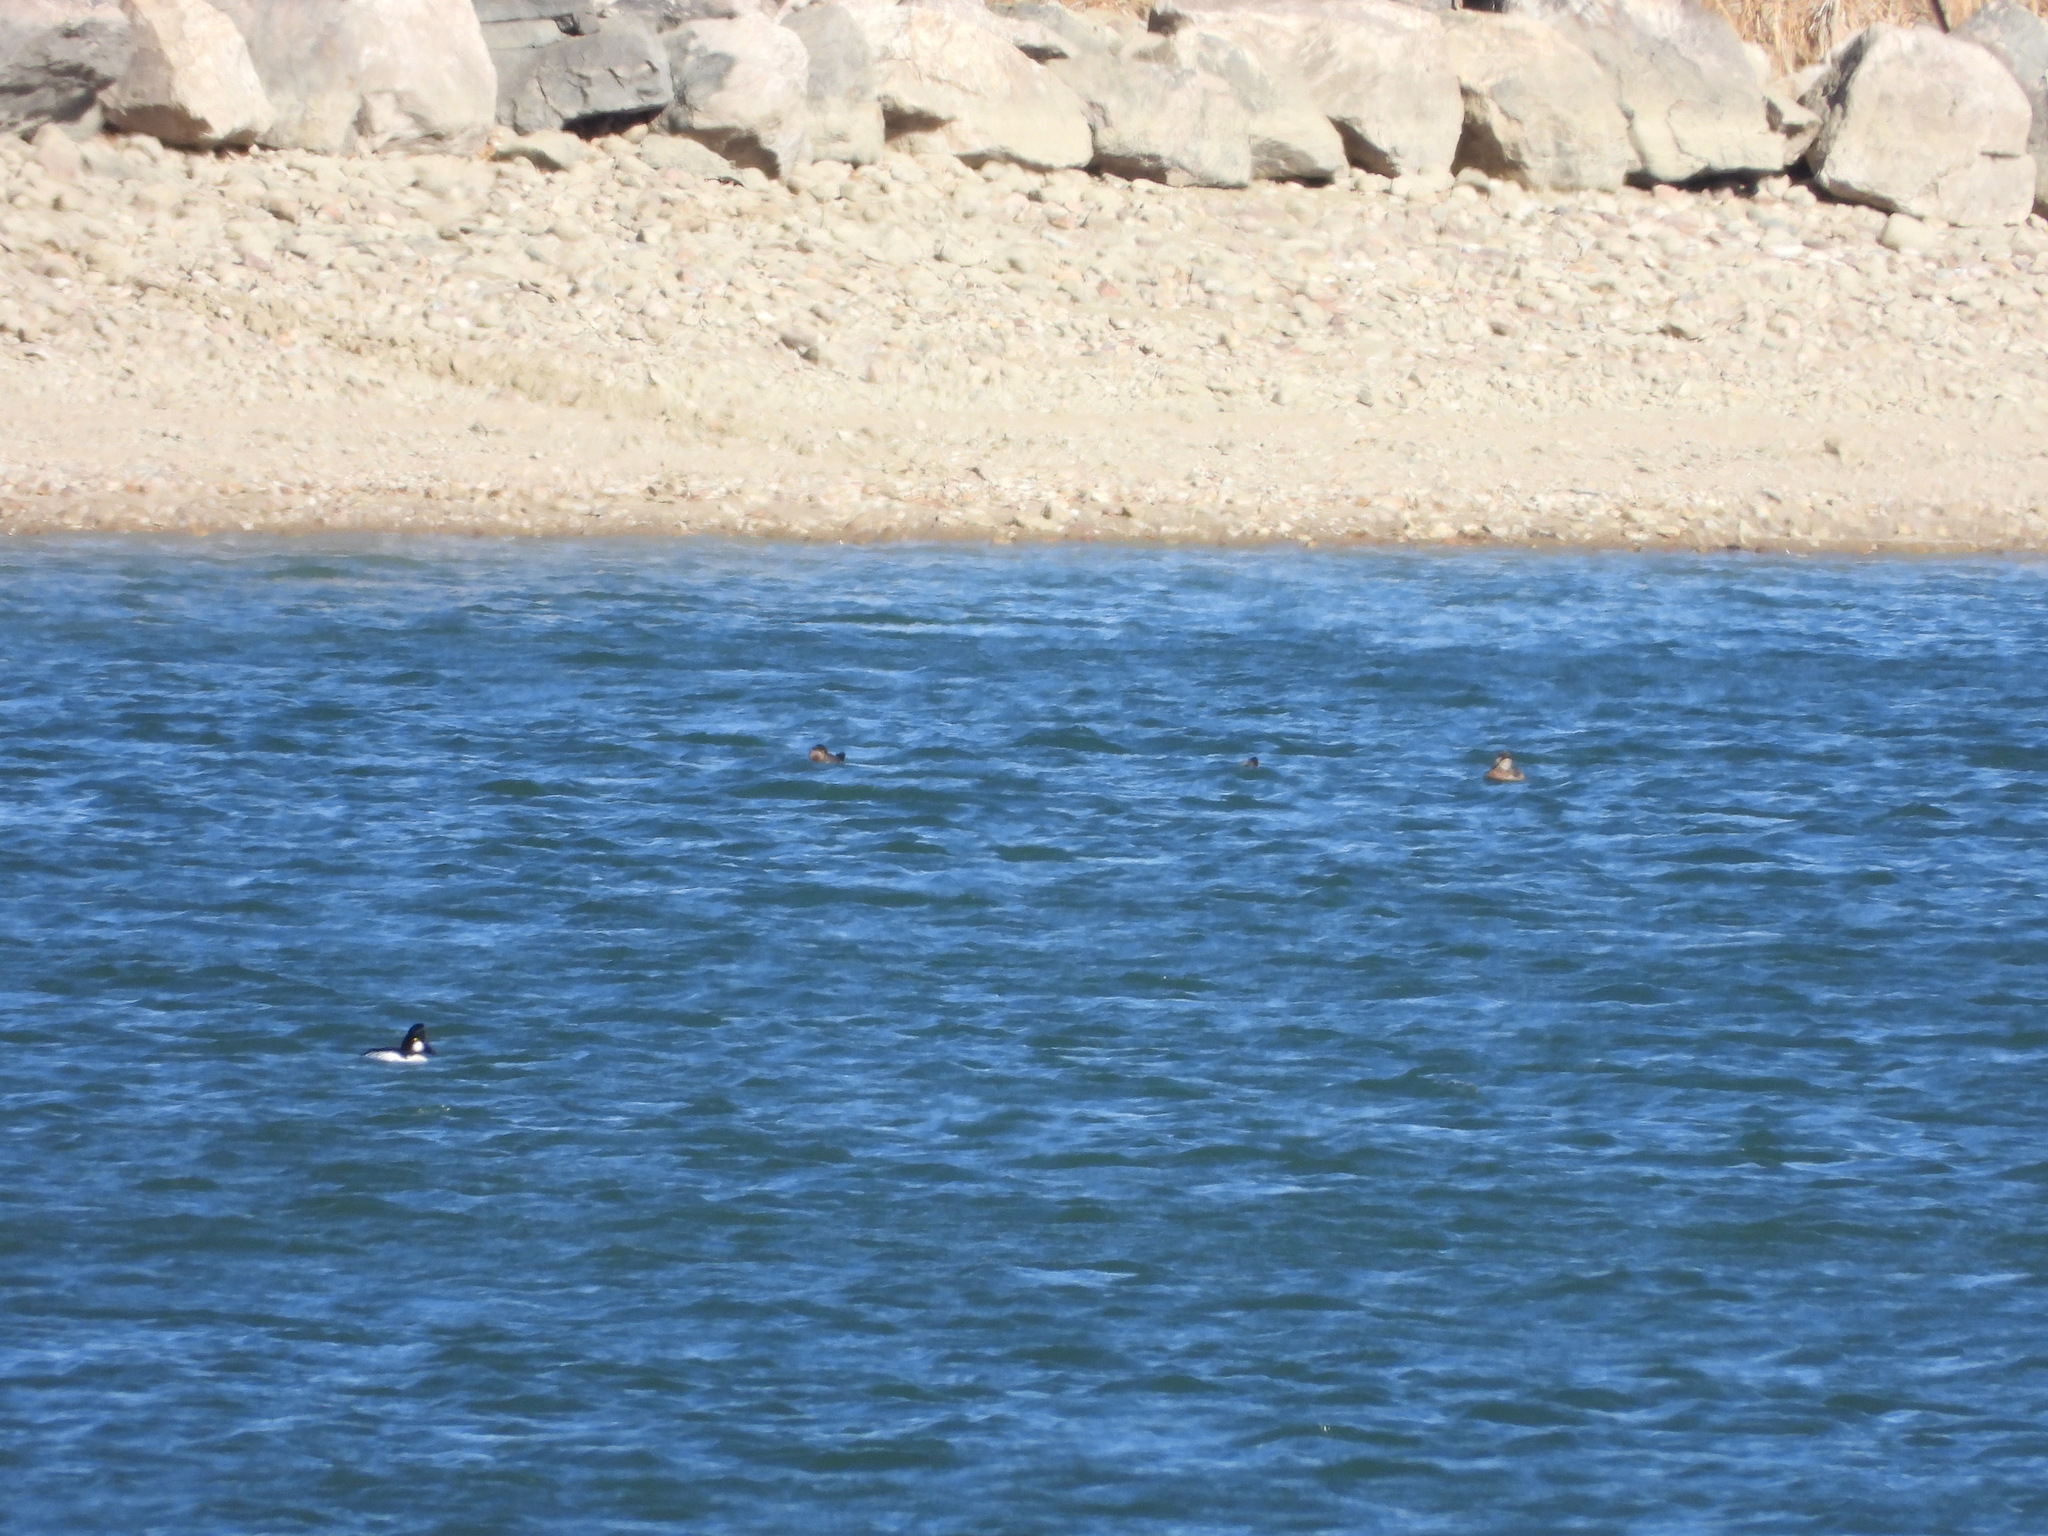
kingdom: Animalia
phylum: Chordata
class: Aves
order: Anseriformes
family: Anatidae
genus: Bucephala
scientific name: Bucephala clangula
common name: Common goldeneye
